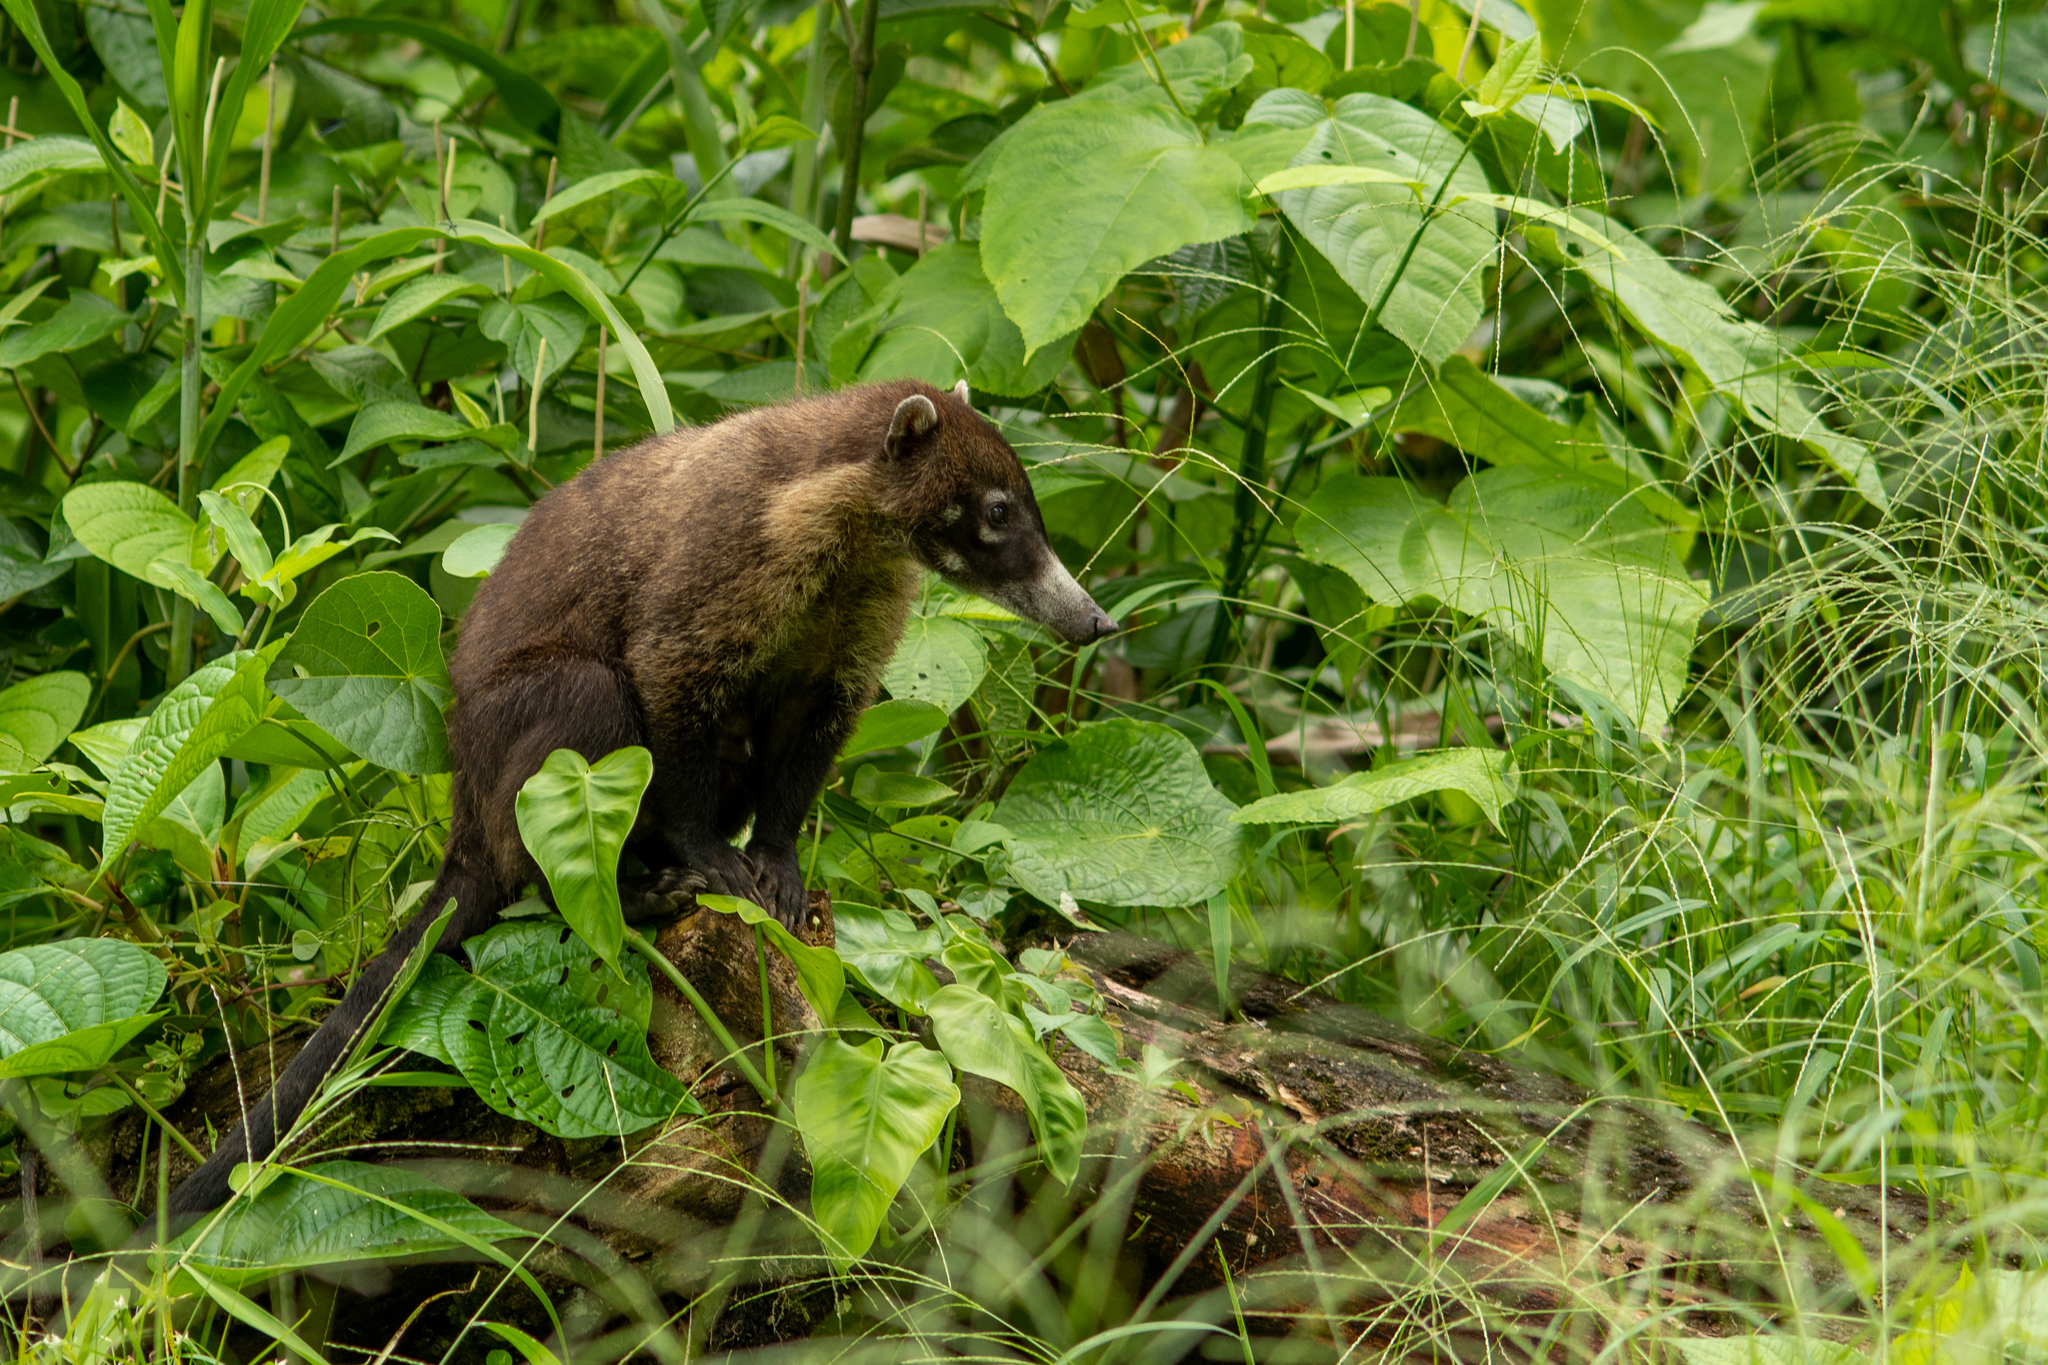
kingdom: Animalia
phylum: Chordata
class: Mammalia
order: Carnivora
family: Procyonidae
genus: Nasua
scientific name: Nasua narica
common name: White-nosed coati
